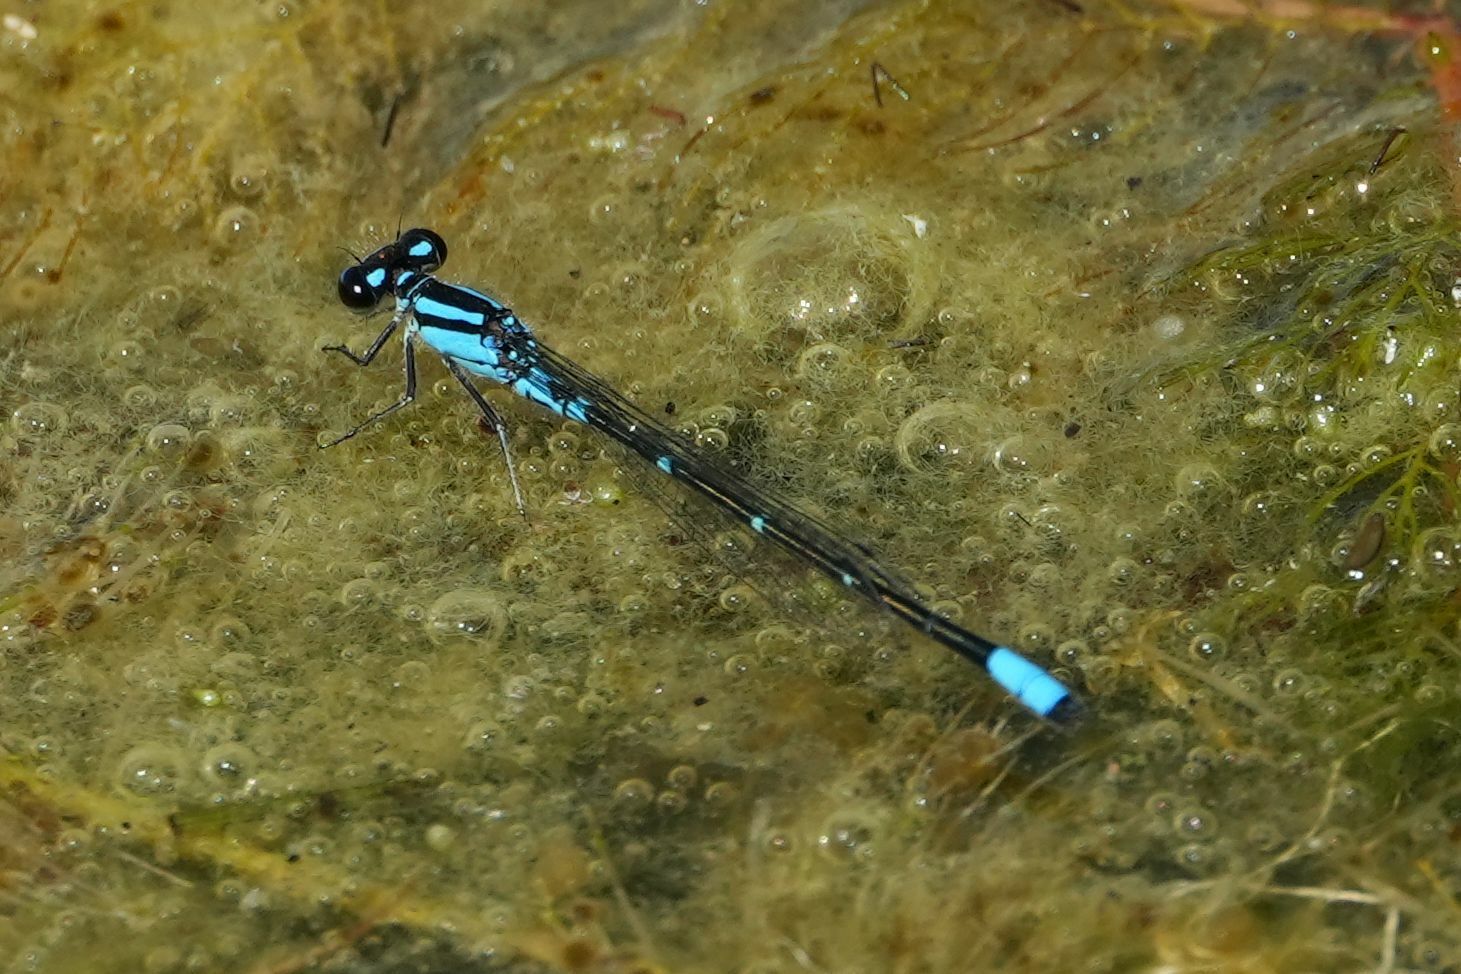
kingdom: Animalia
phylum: Arthropoda
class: Insecta
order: Odonata
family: Coenagrionidae
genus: Enallagma
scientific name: Enallagma geminatum
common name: Skimming bluet
